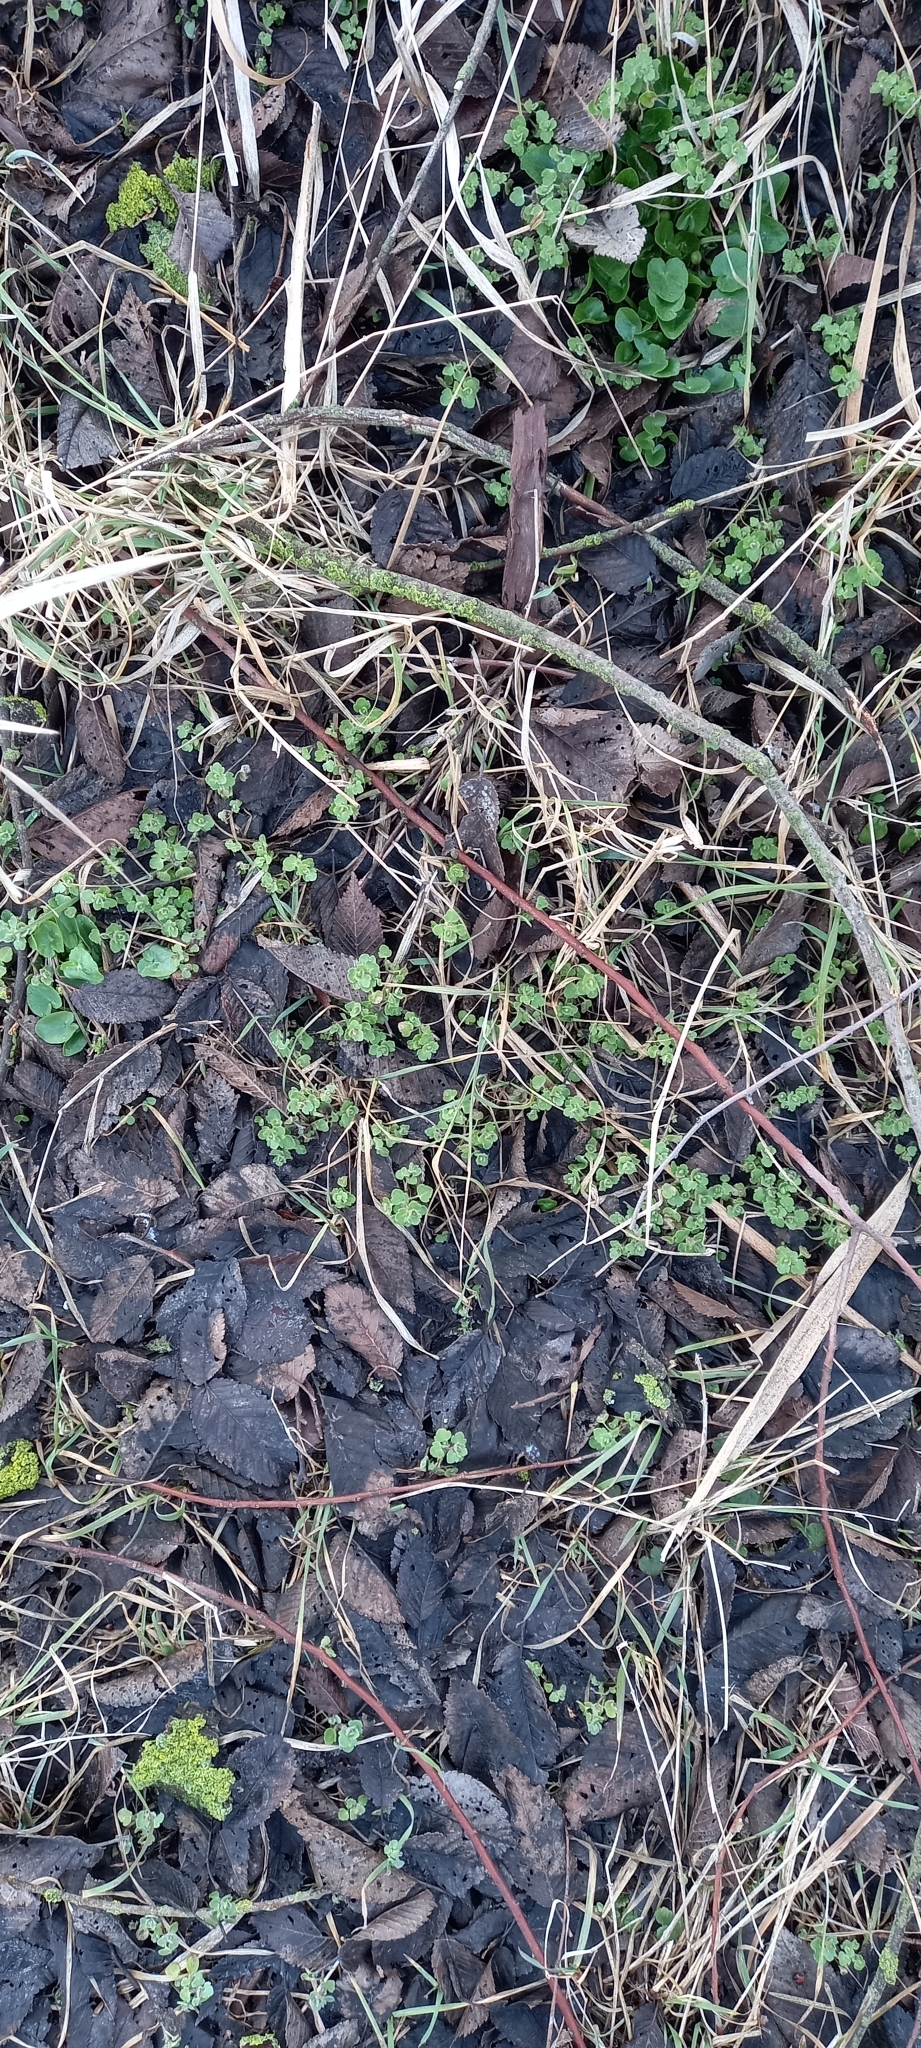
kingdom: Plantae
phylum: Tracheophyta
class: Magnoliopsida
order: Lamiales
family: Plantaginaceae
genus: Veronica
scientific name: Veronica hederifolia
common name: Ivy-leaved speedwell
